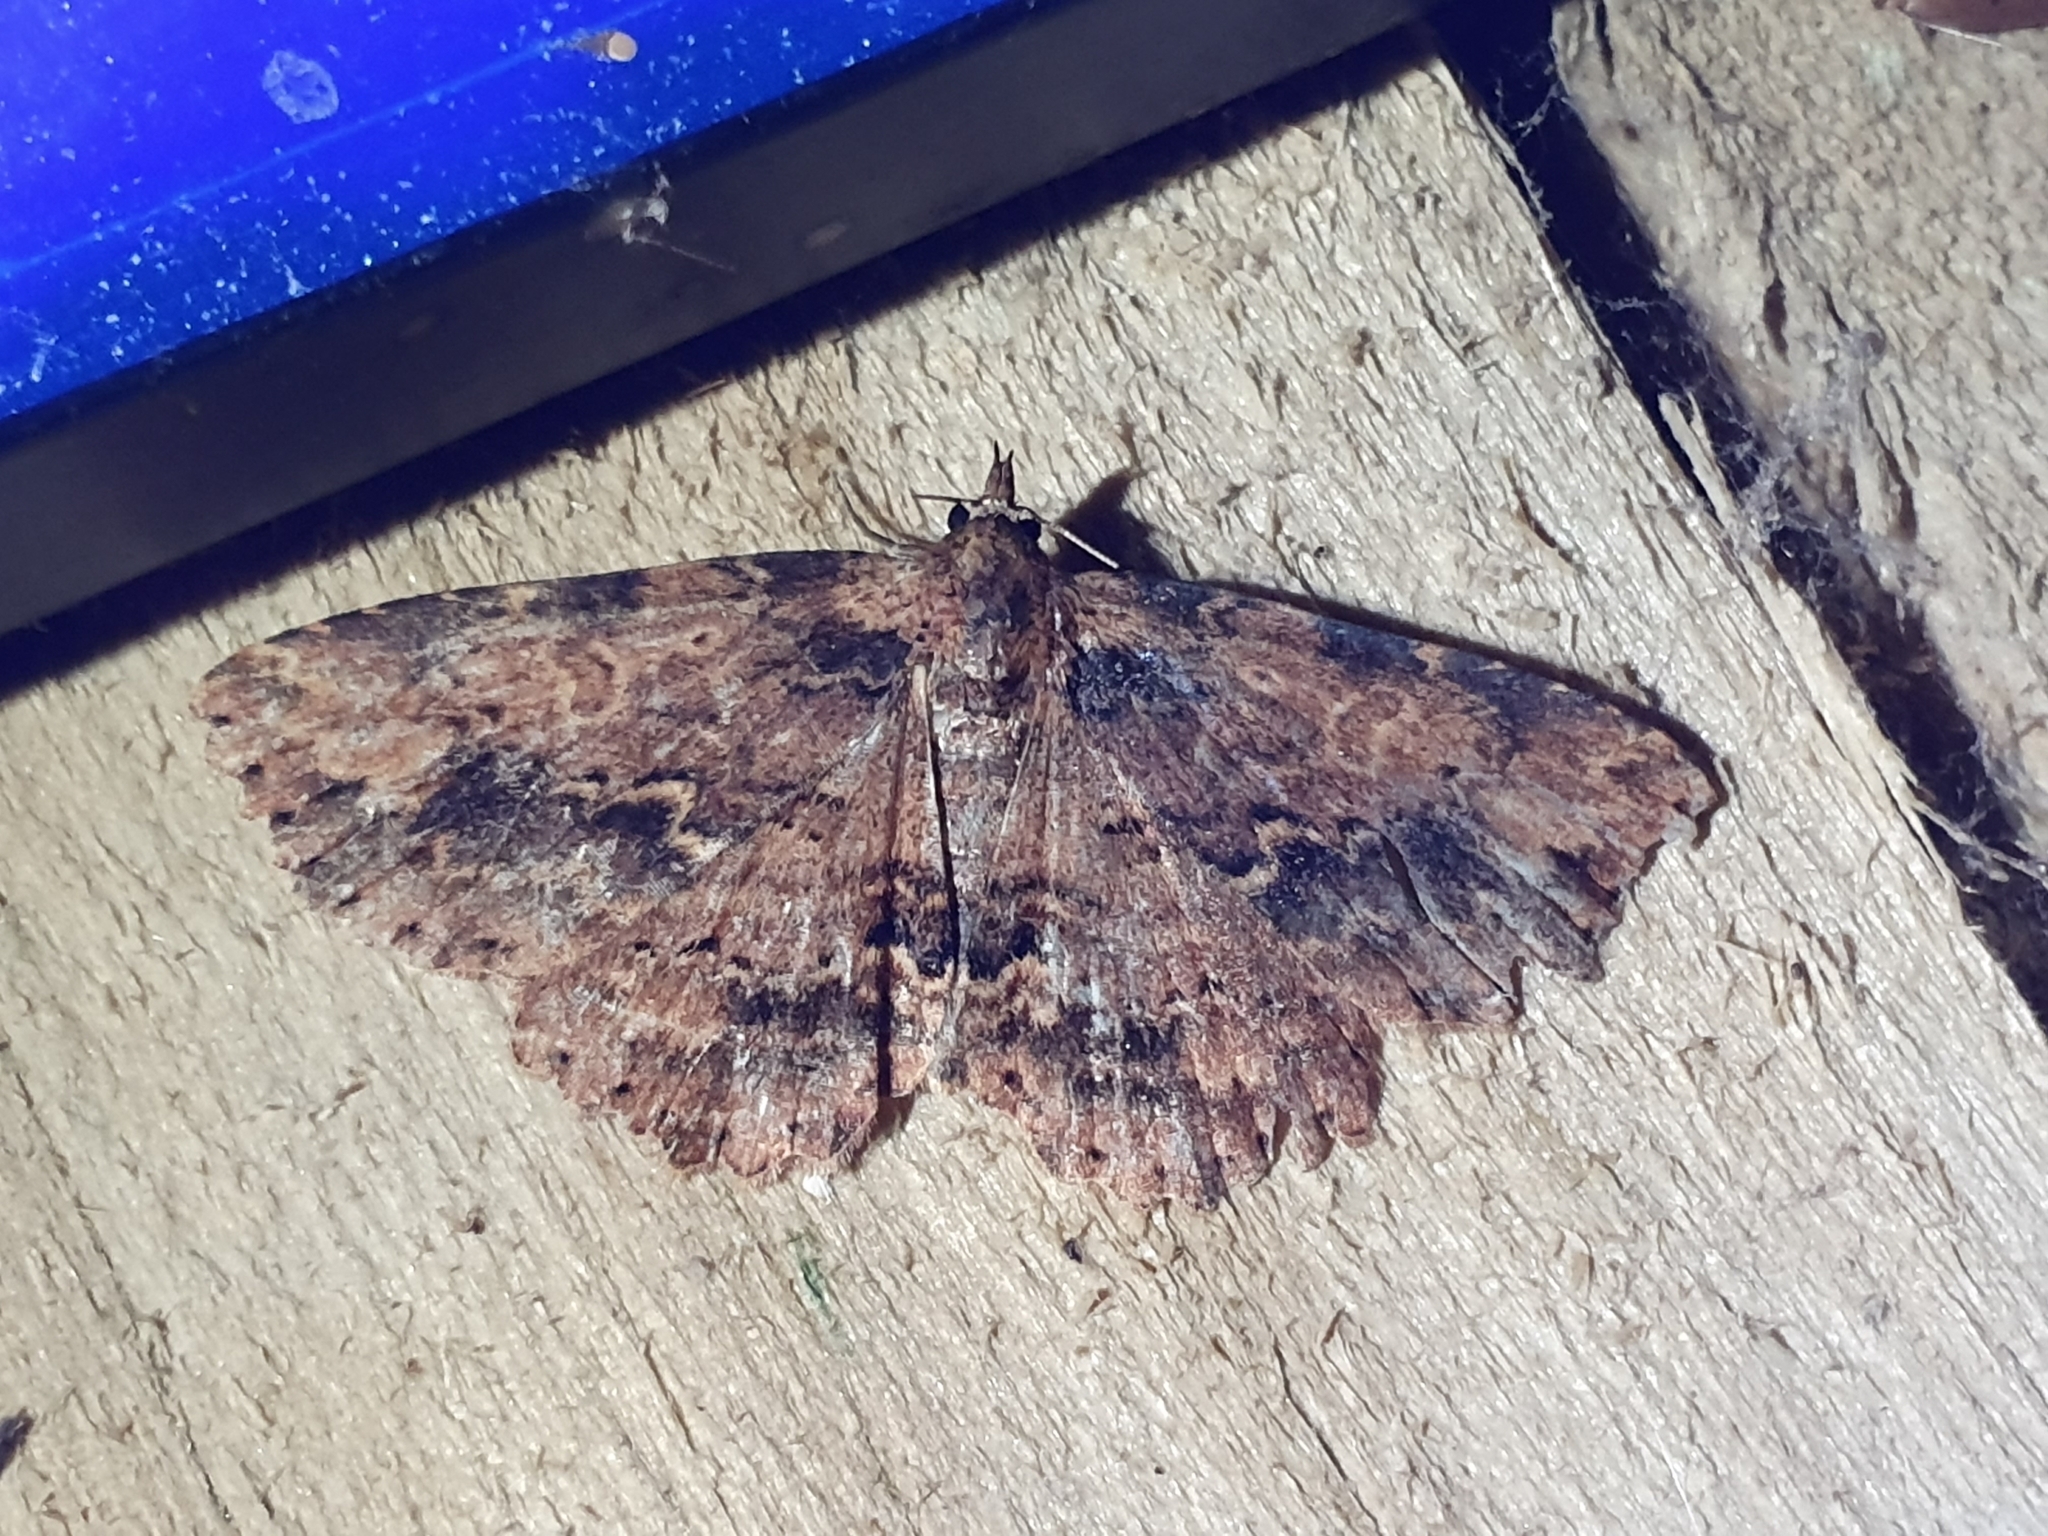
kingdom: Animalia
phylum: Arthropoda
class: Insecta
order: Lepidoptera
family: Erebidae
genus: Artigisa
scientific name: Artigisa melanephele
